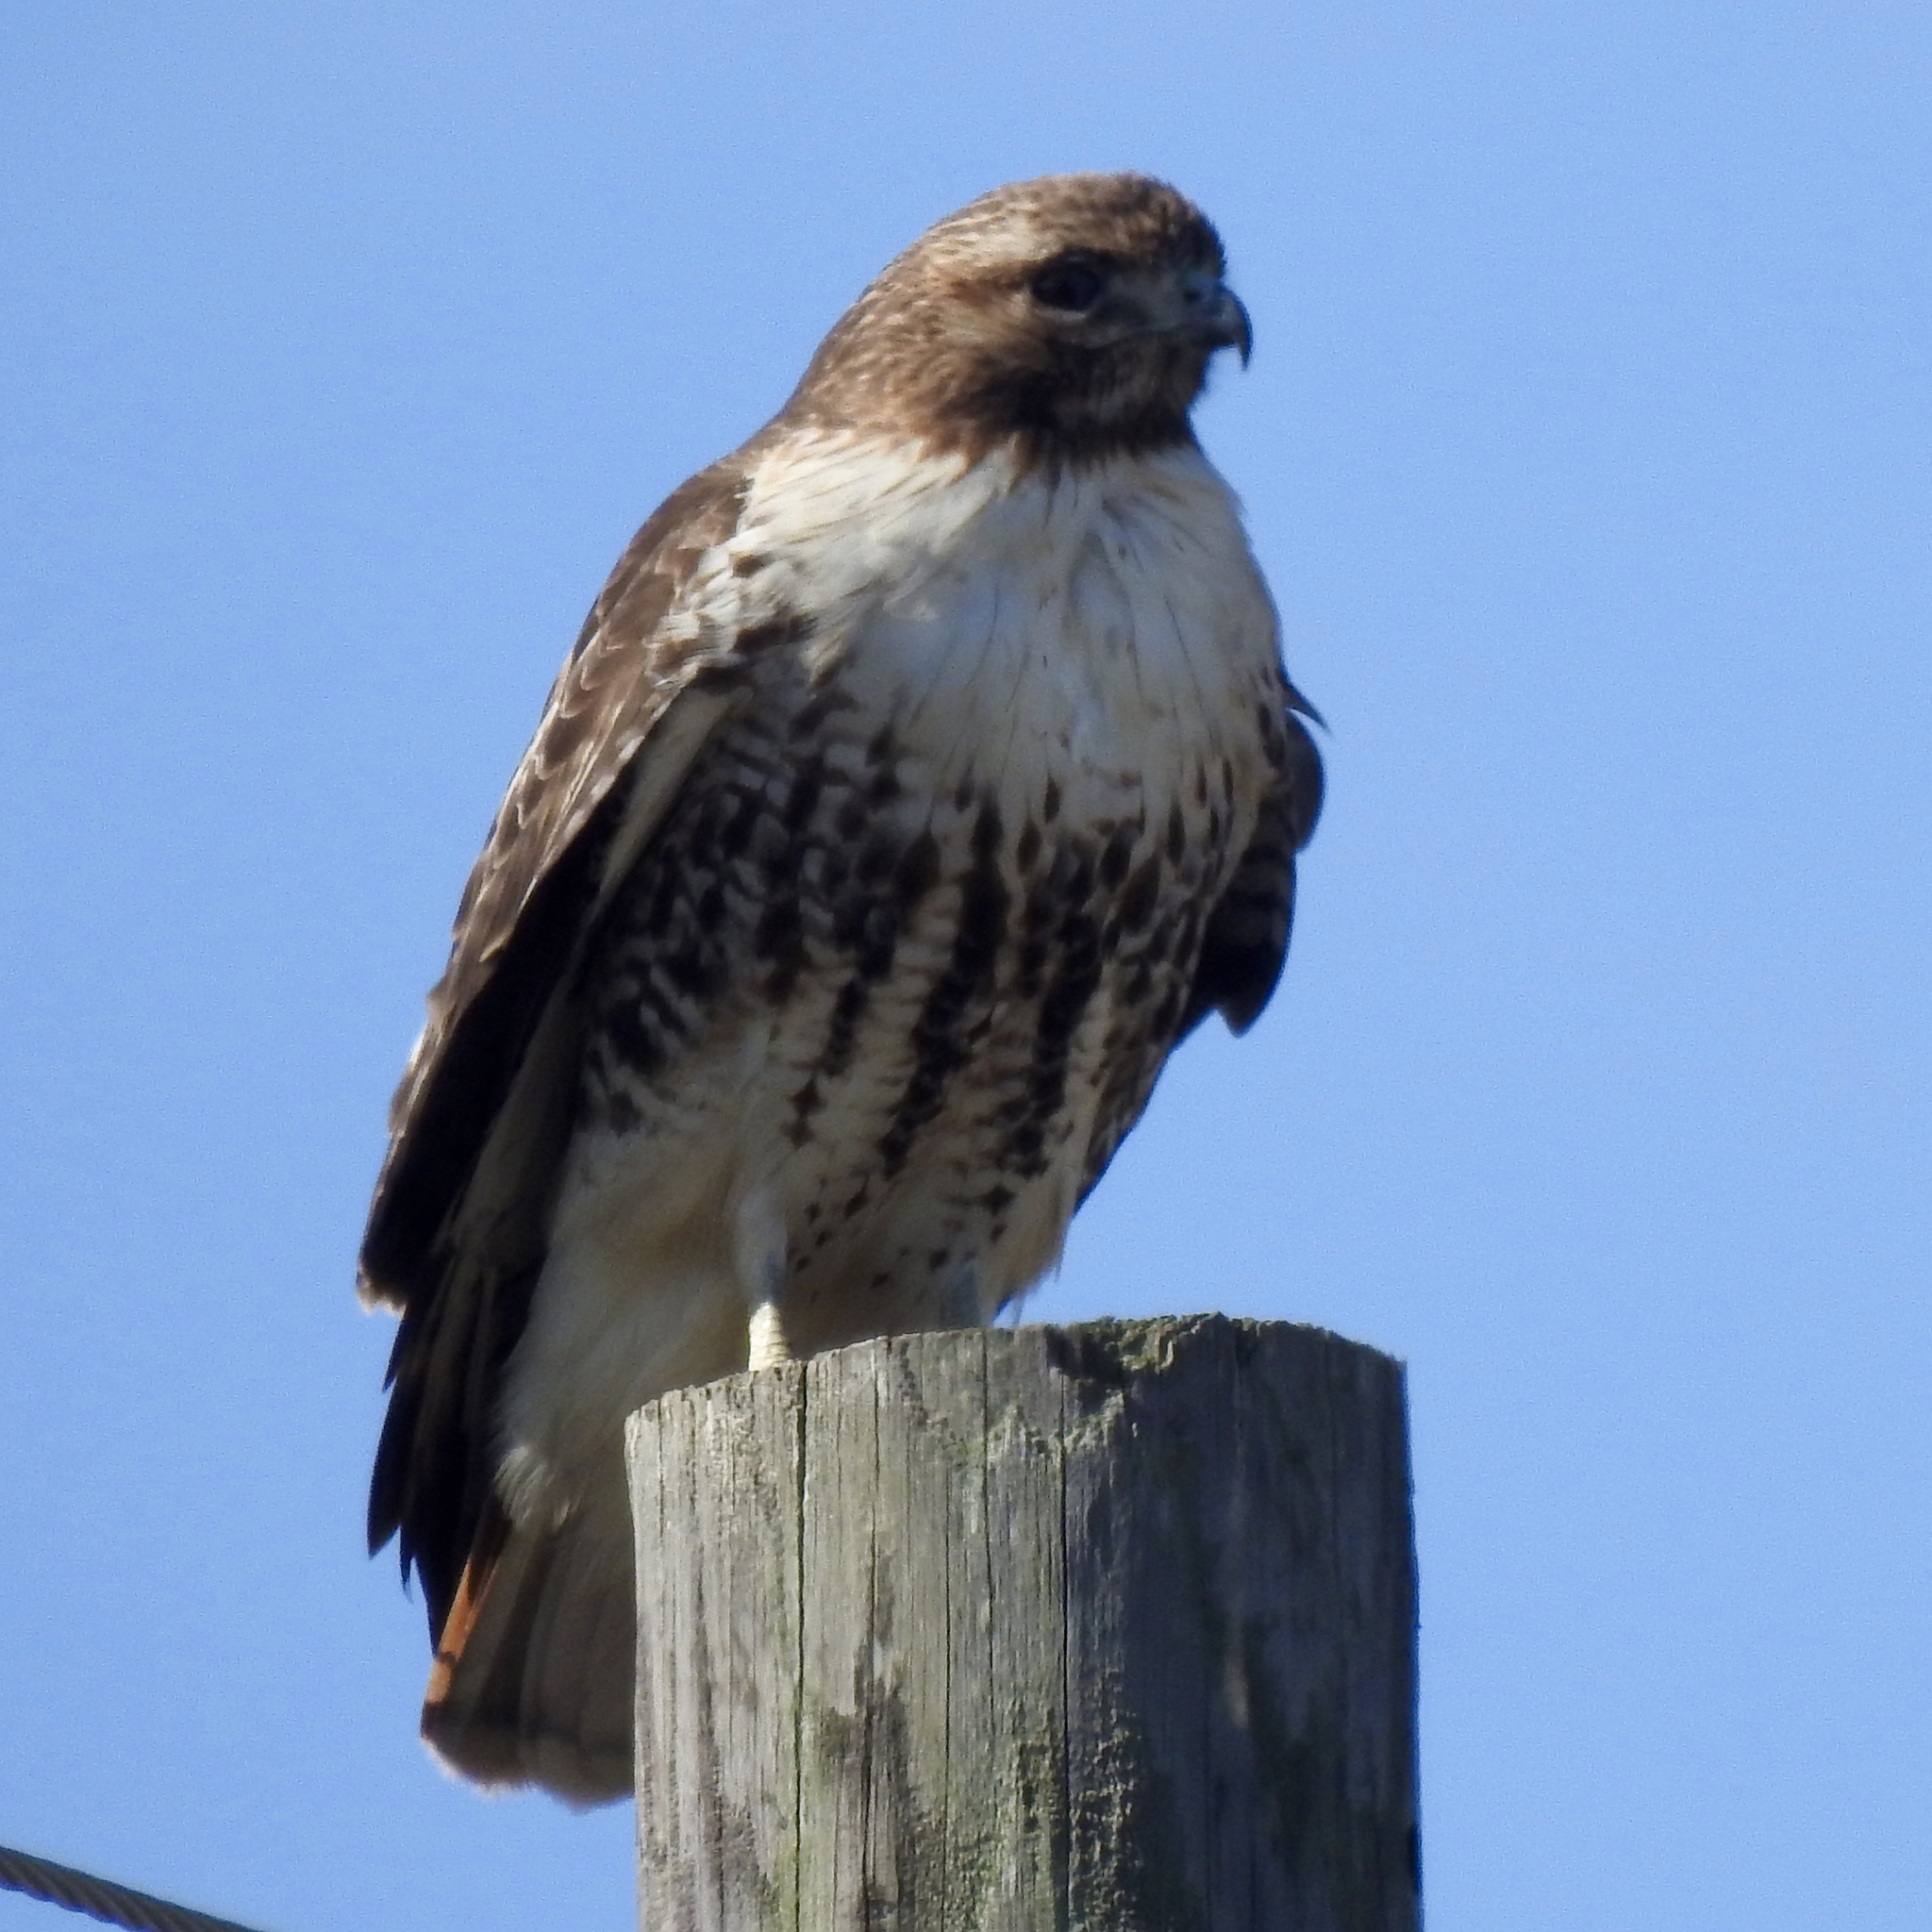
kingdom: Animalia
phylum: Chordata
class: Aves
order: Accipitriformes
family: Accipitridae
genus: Buteo
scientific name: Buteo jamaicensis
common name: Red-tailed hawk
